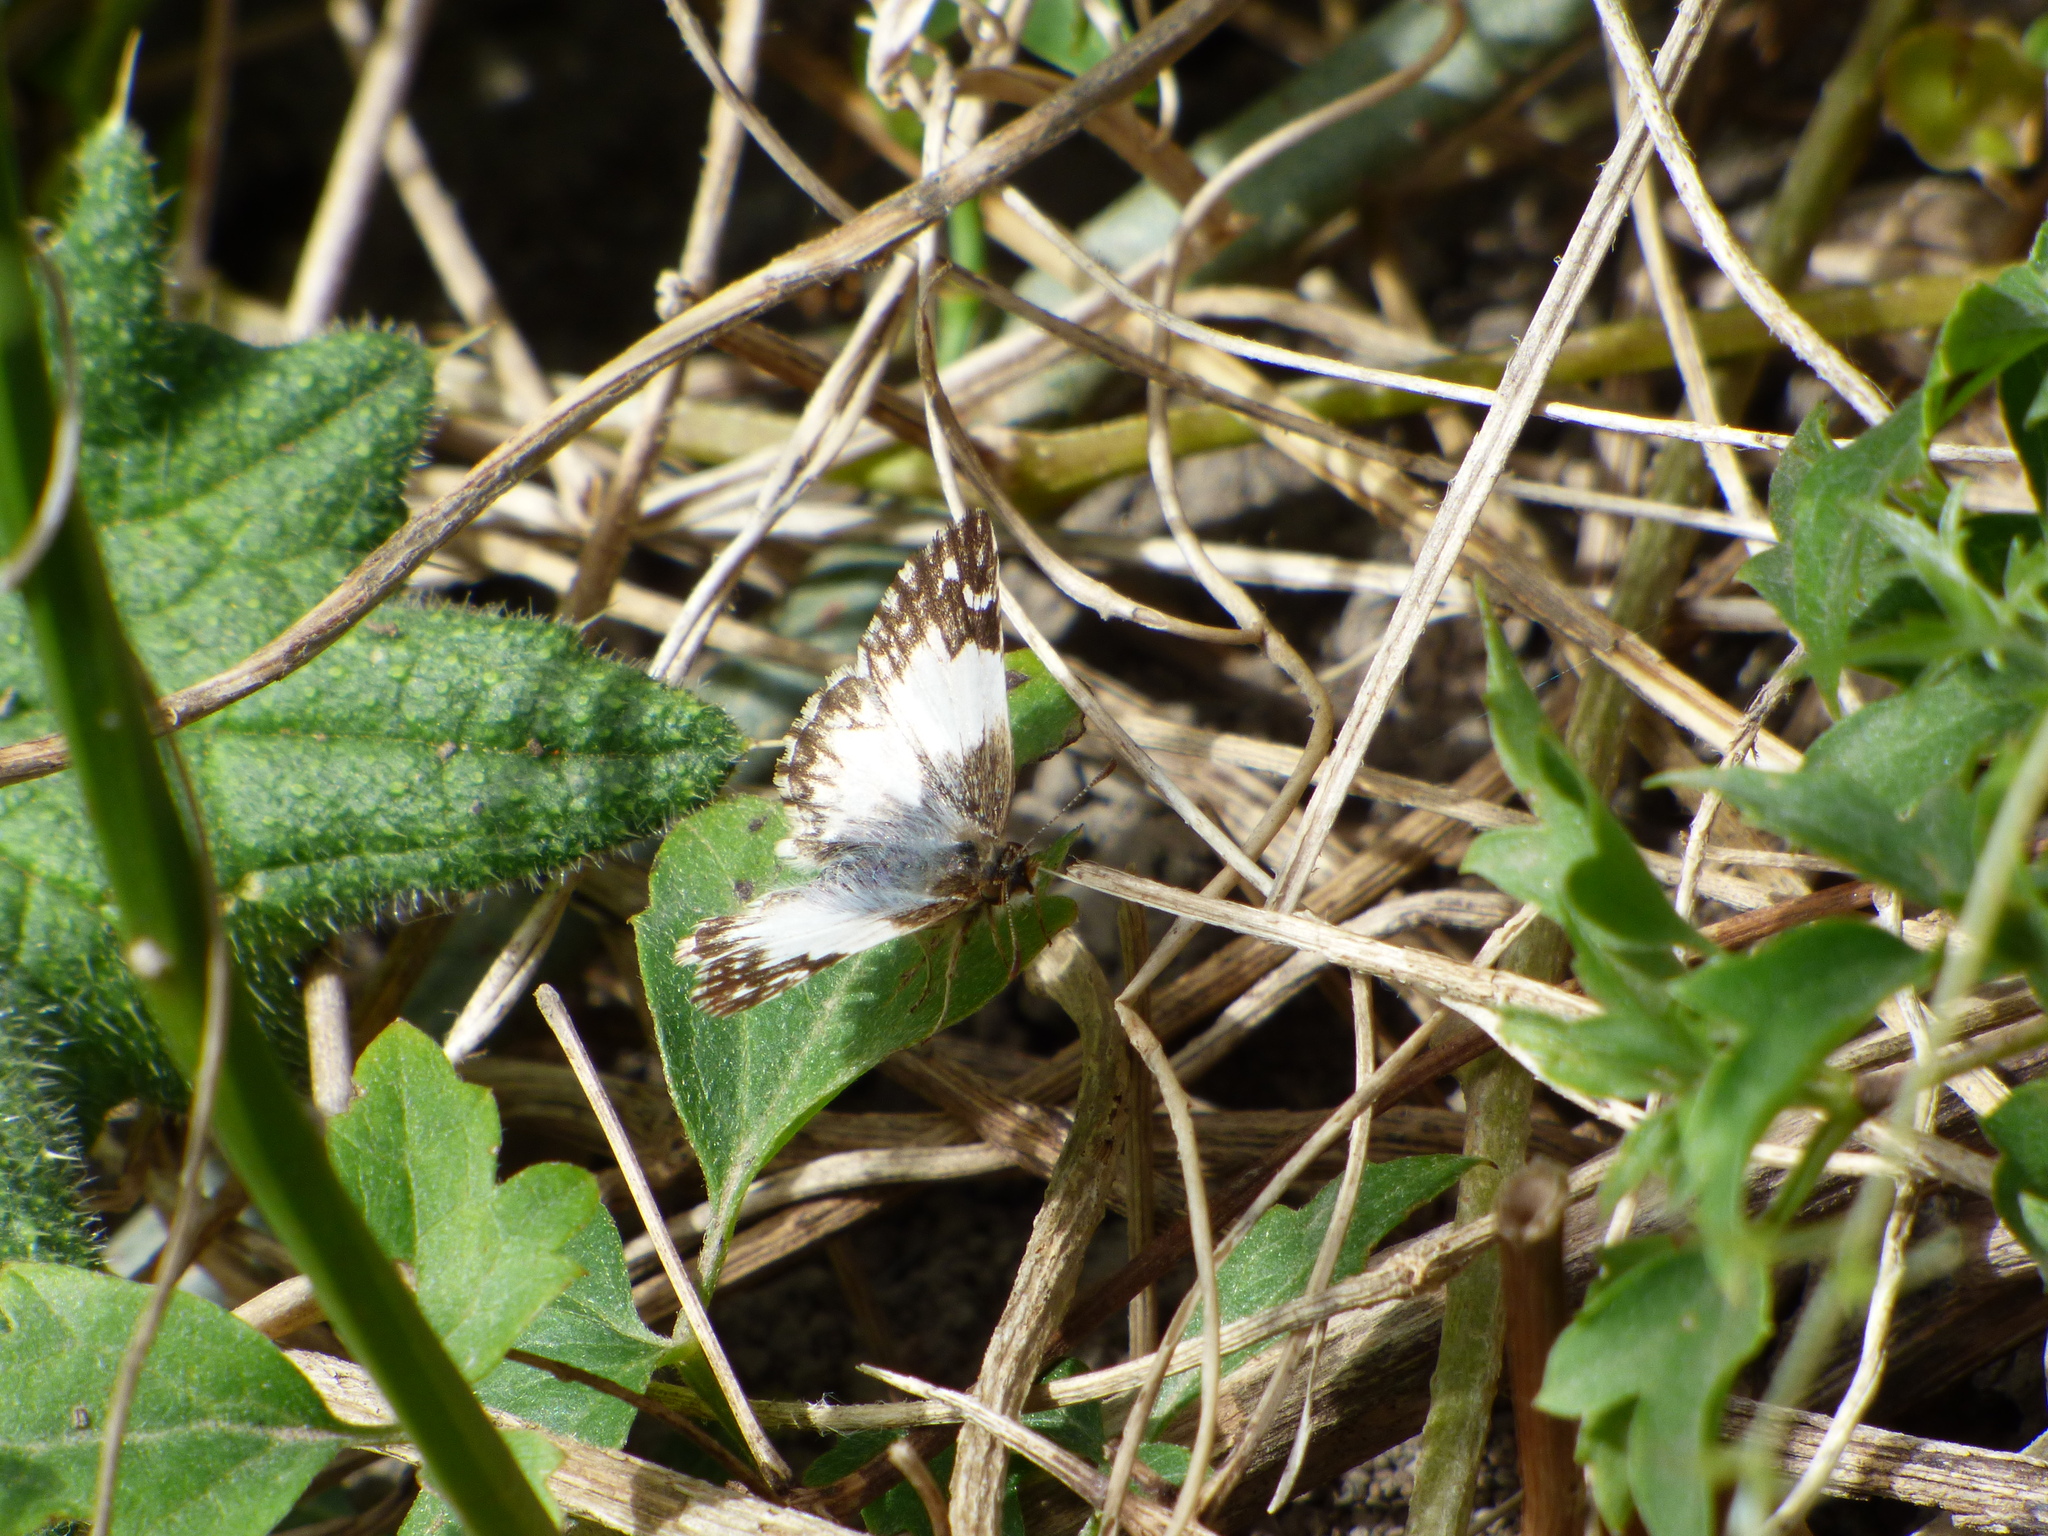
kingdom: Animalia
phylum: Arthropoda
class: Insecta
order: Lepidoptera
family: Hesperiidae
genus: Heliopetes
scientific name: Heliopetes omrina
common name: Stained white-skipper
